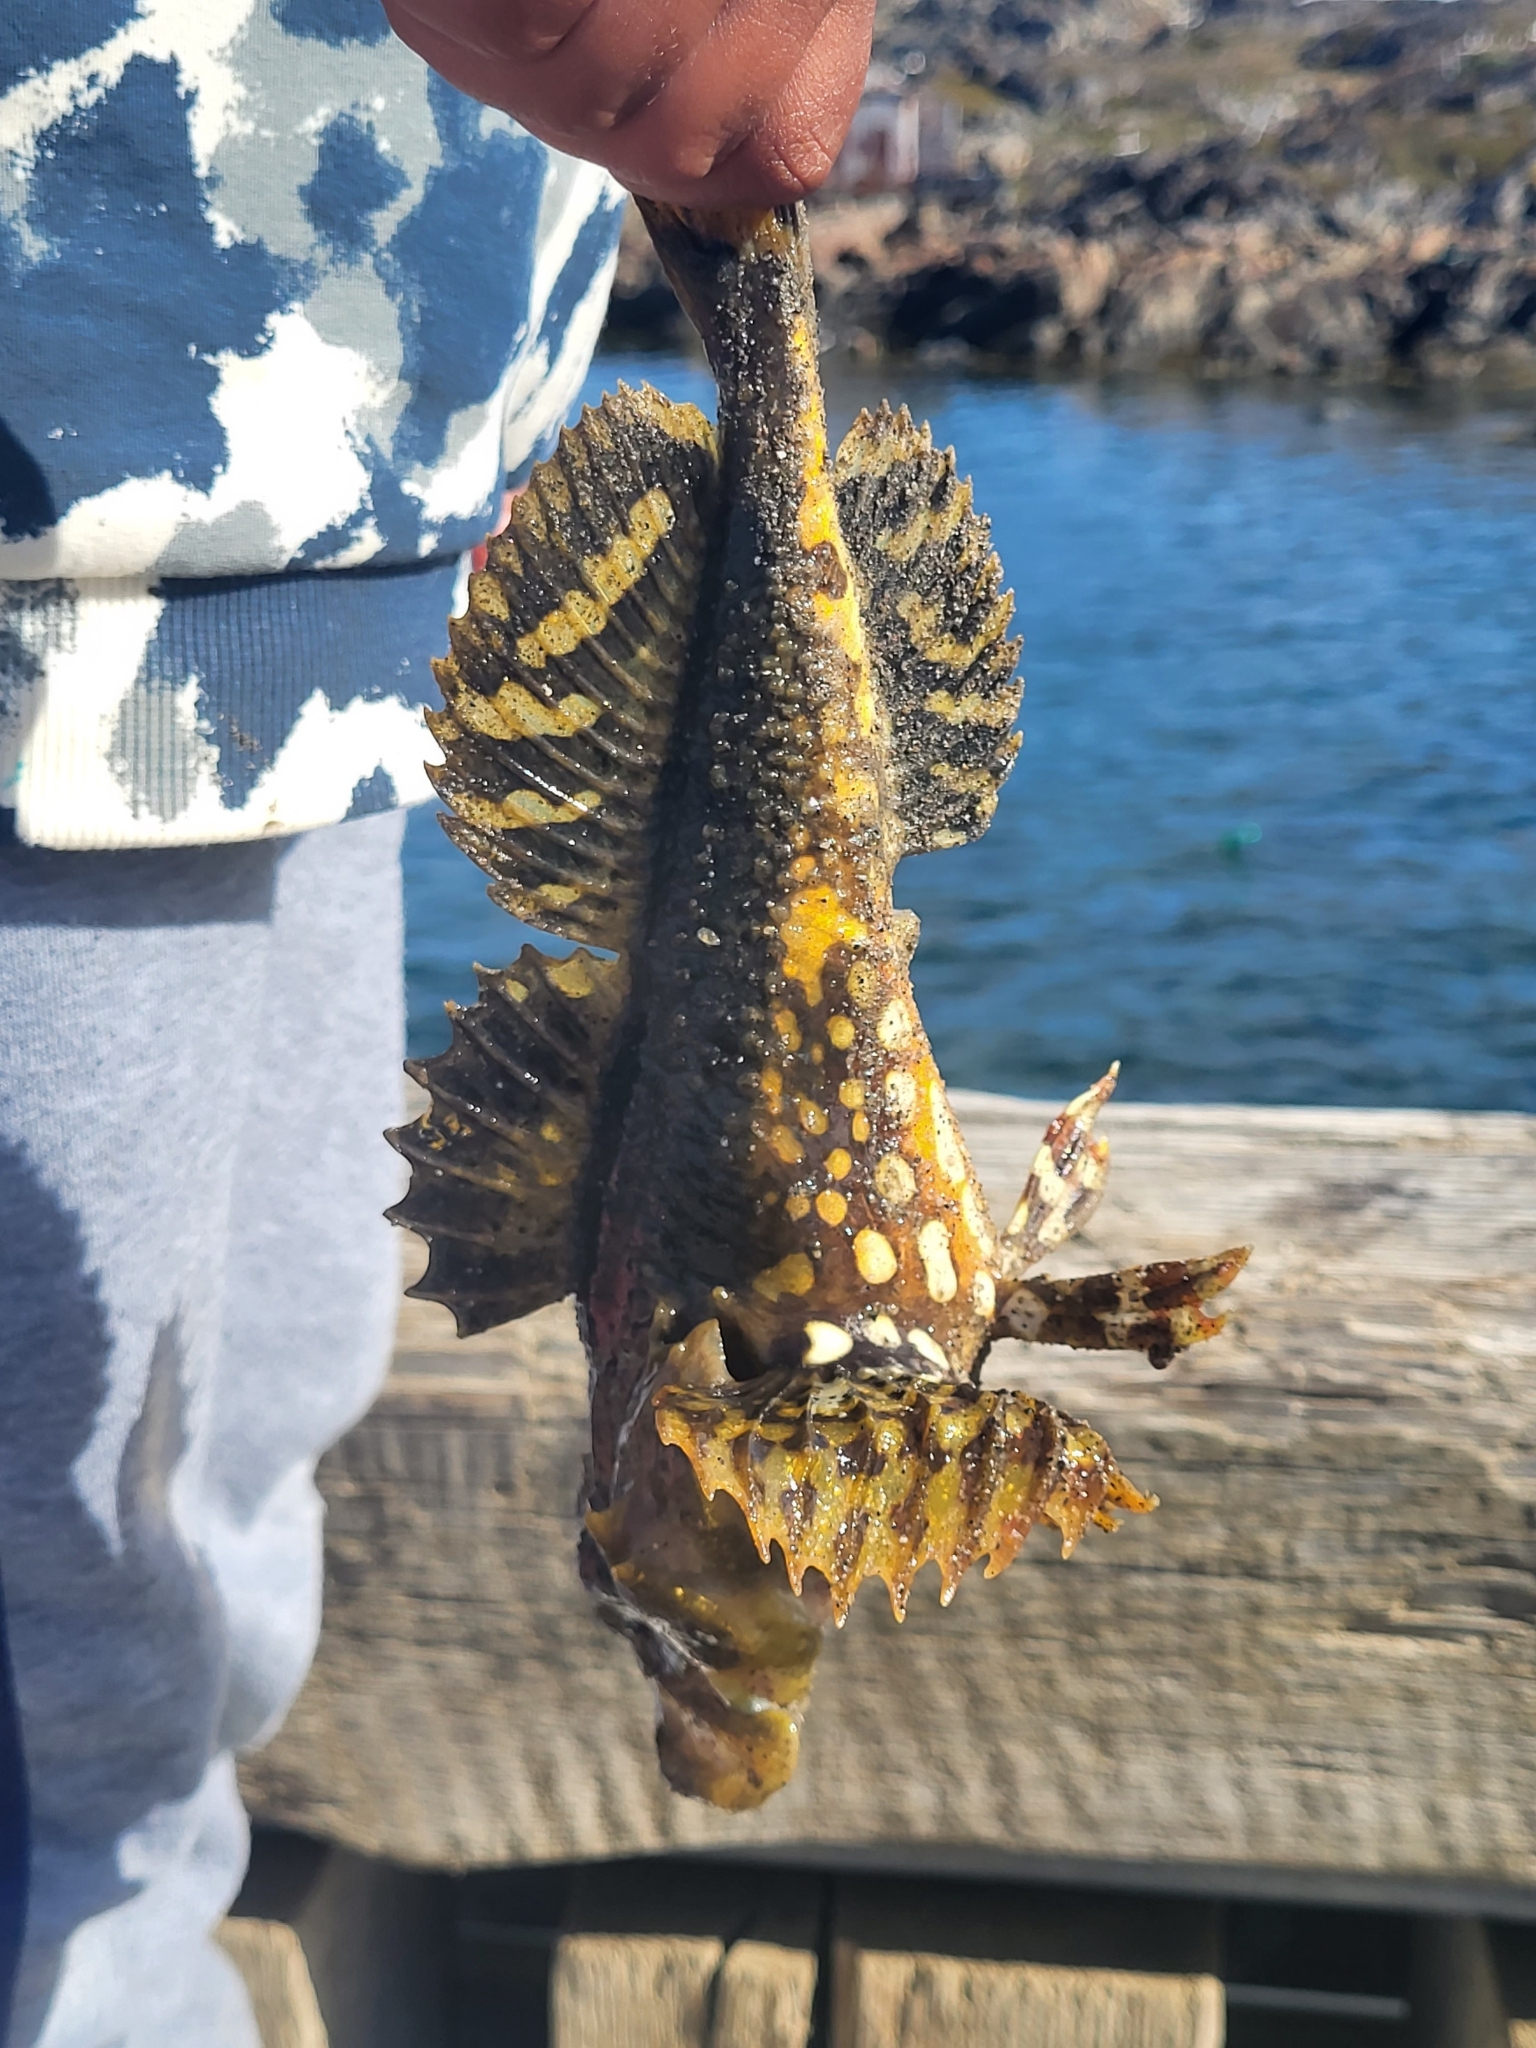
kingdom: Animalia
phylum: Chordata
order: Scorpaeniformes
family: Cottidae
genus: Myoxocephalus
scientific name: Myoxocephalus scorpius
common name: Shorthorn sculpin
